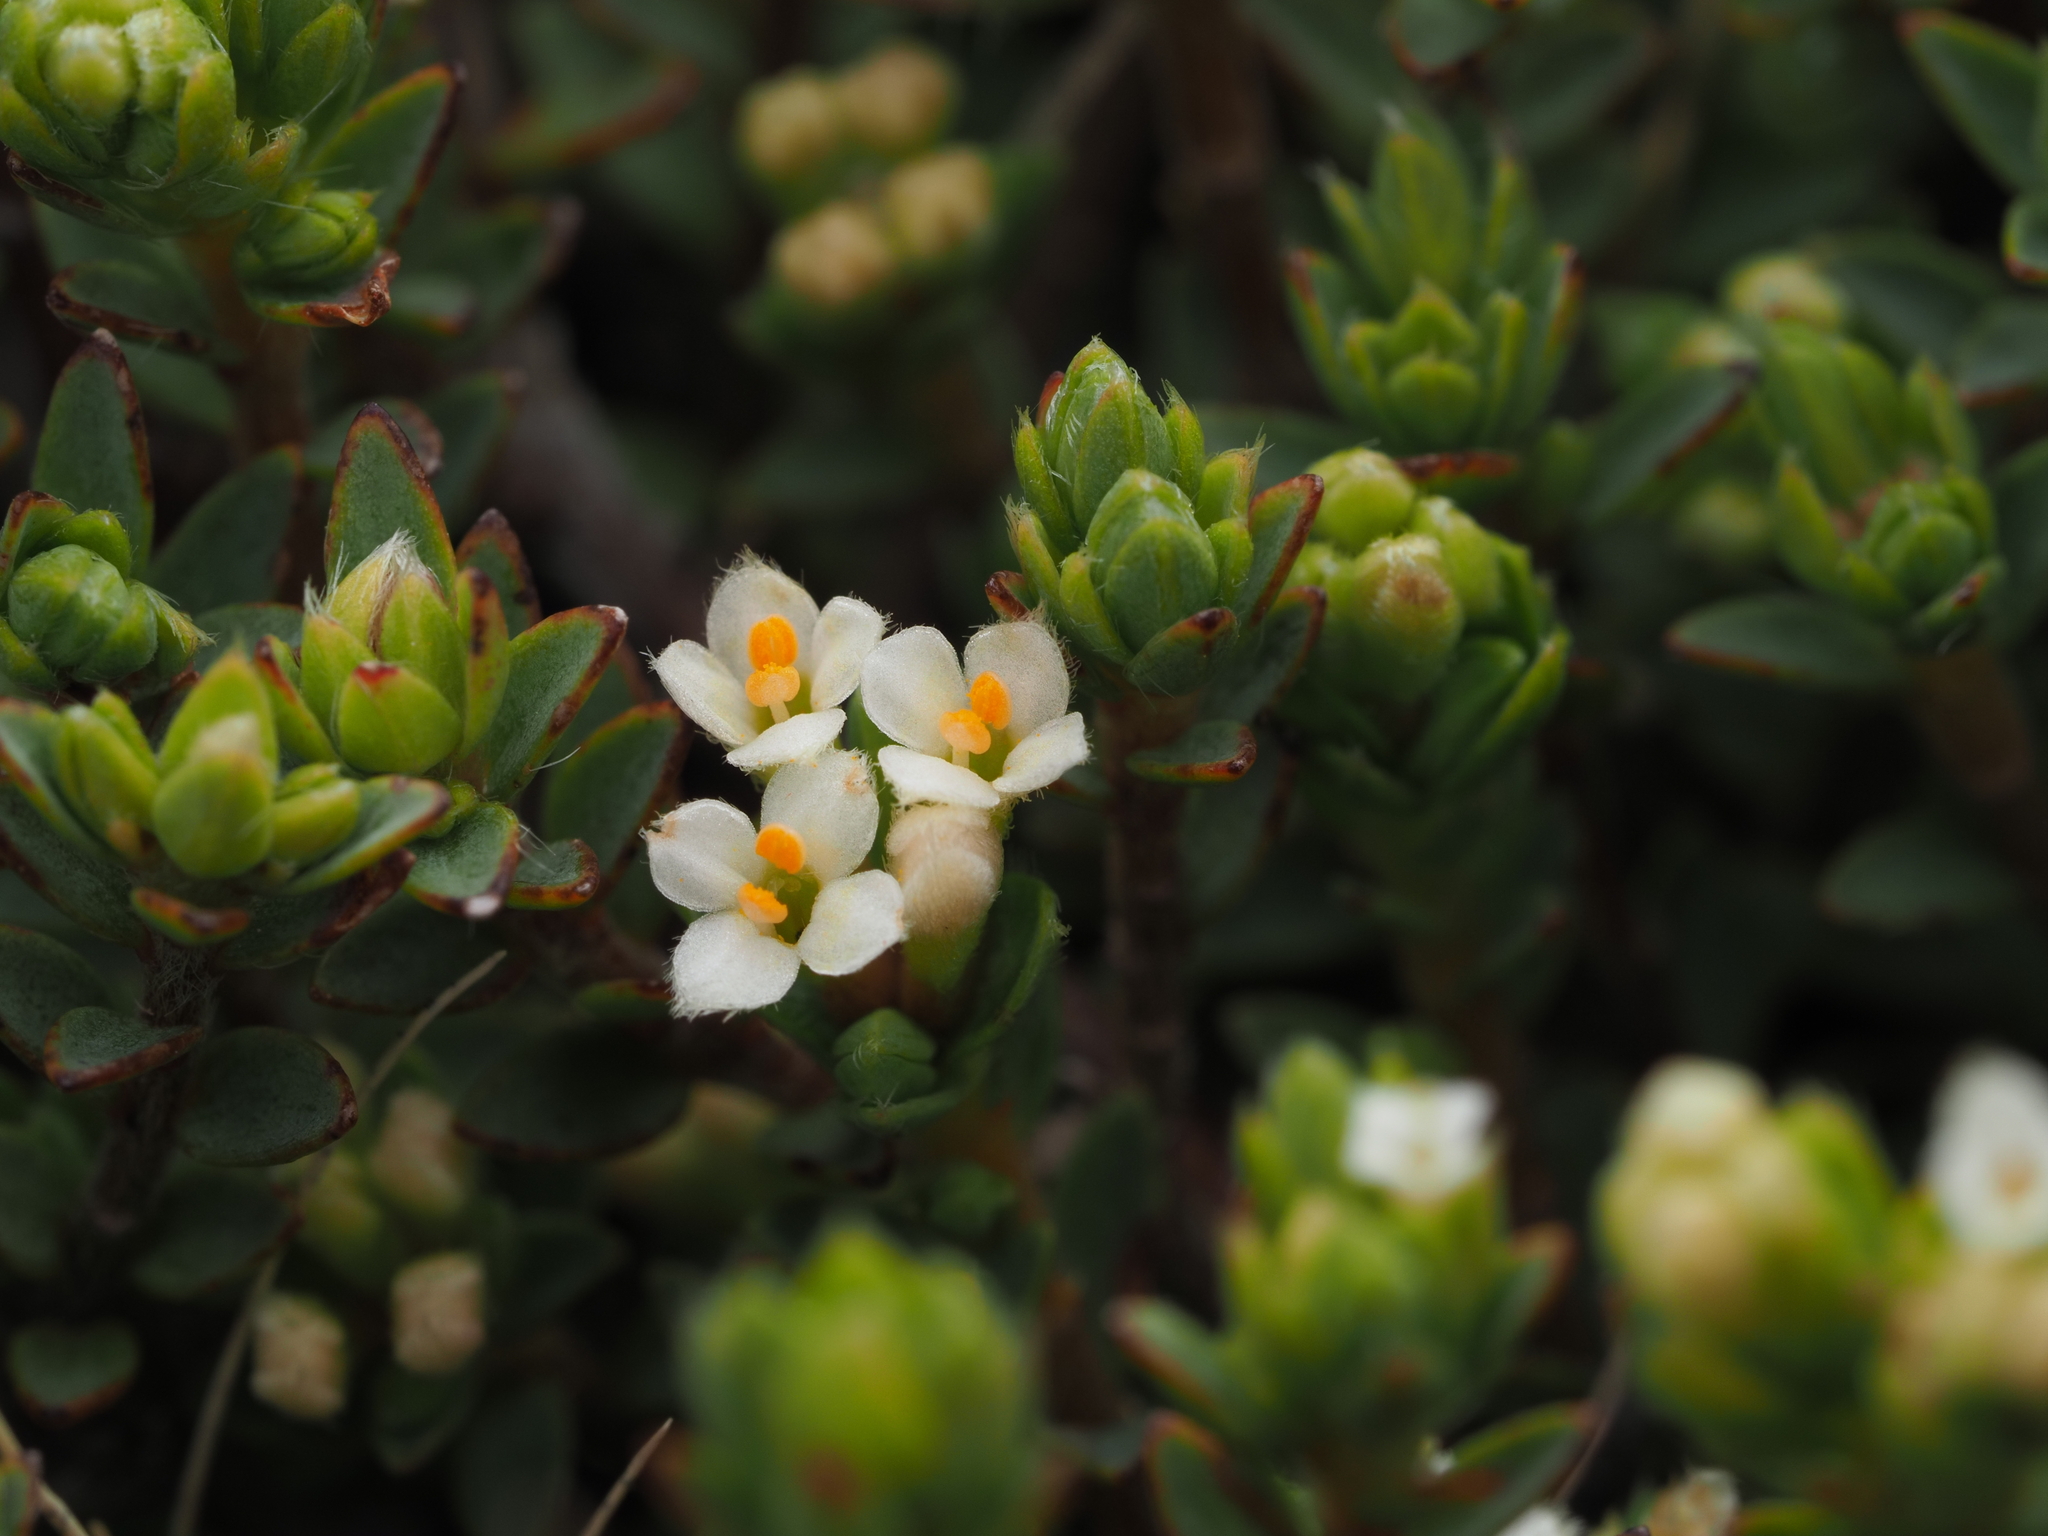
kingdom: Plantae
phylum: Tracheophyta
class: Magnoliopsida
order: Malvales
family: Thymelaeaceae
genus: Pimelea
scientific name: Pimelea oreophila
